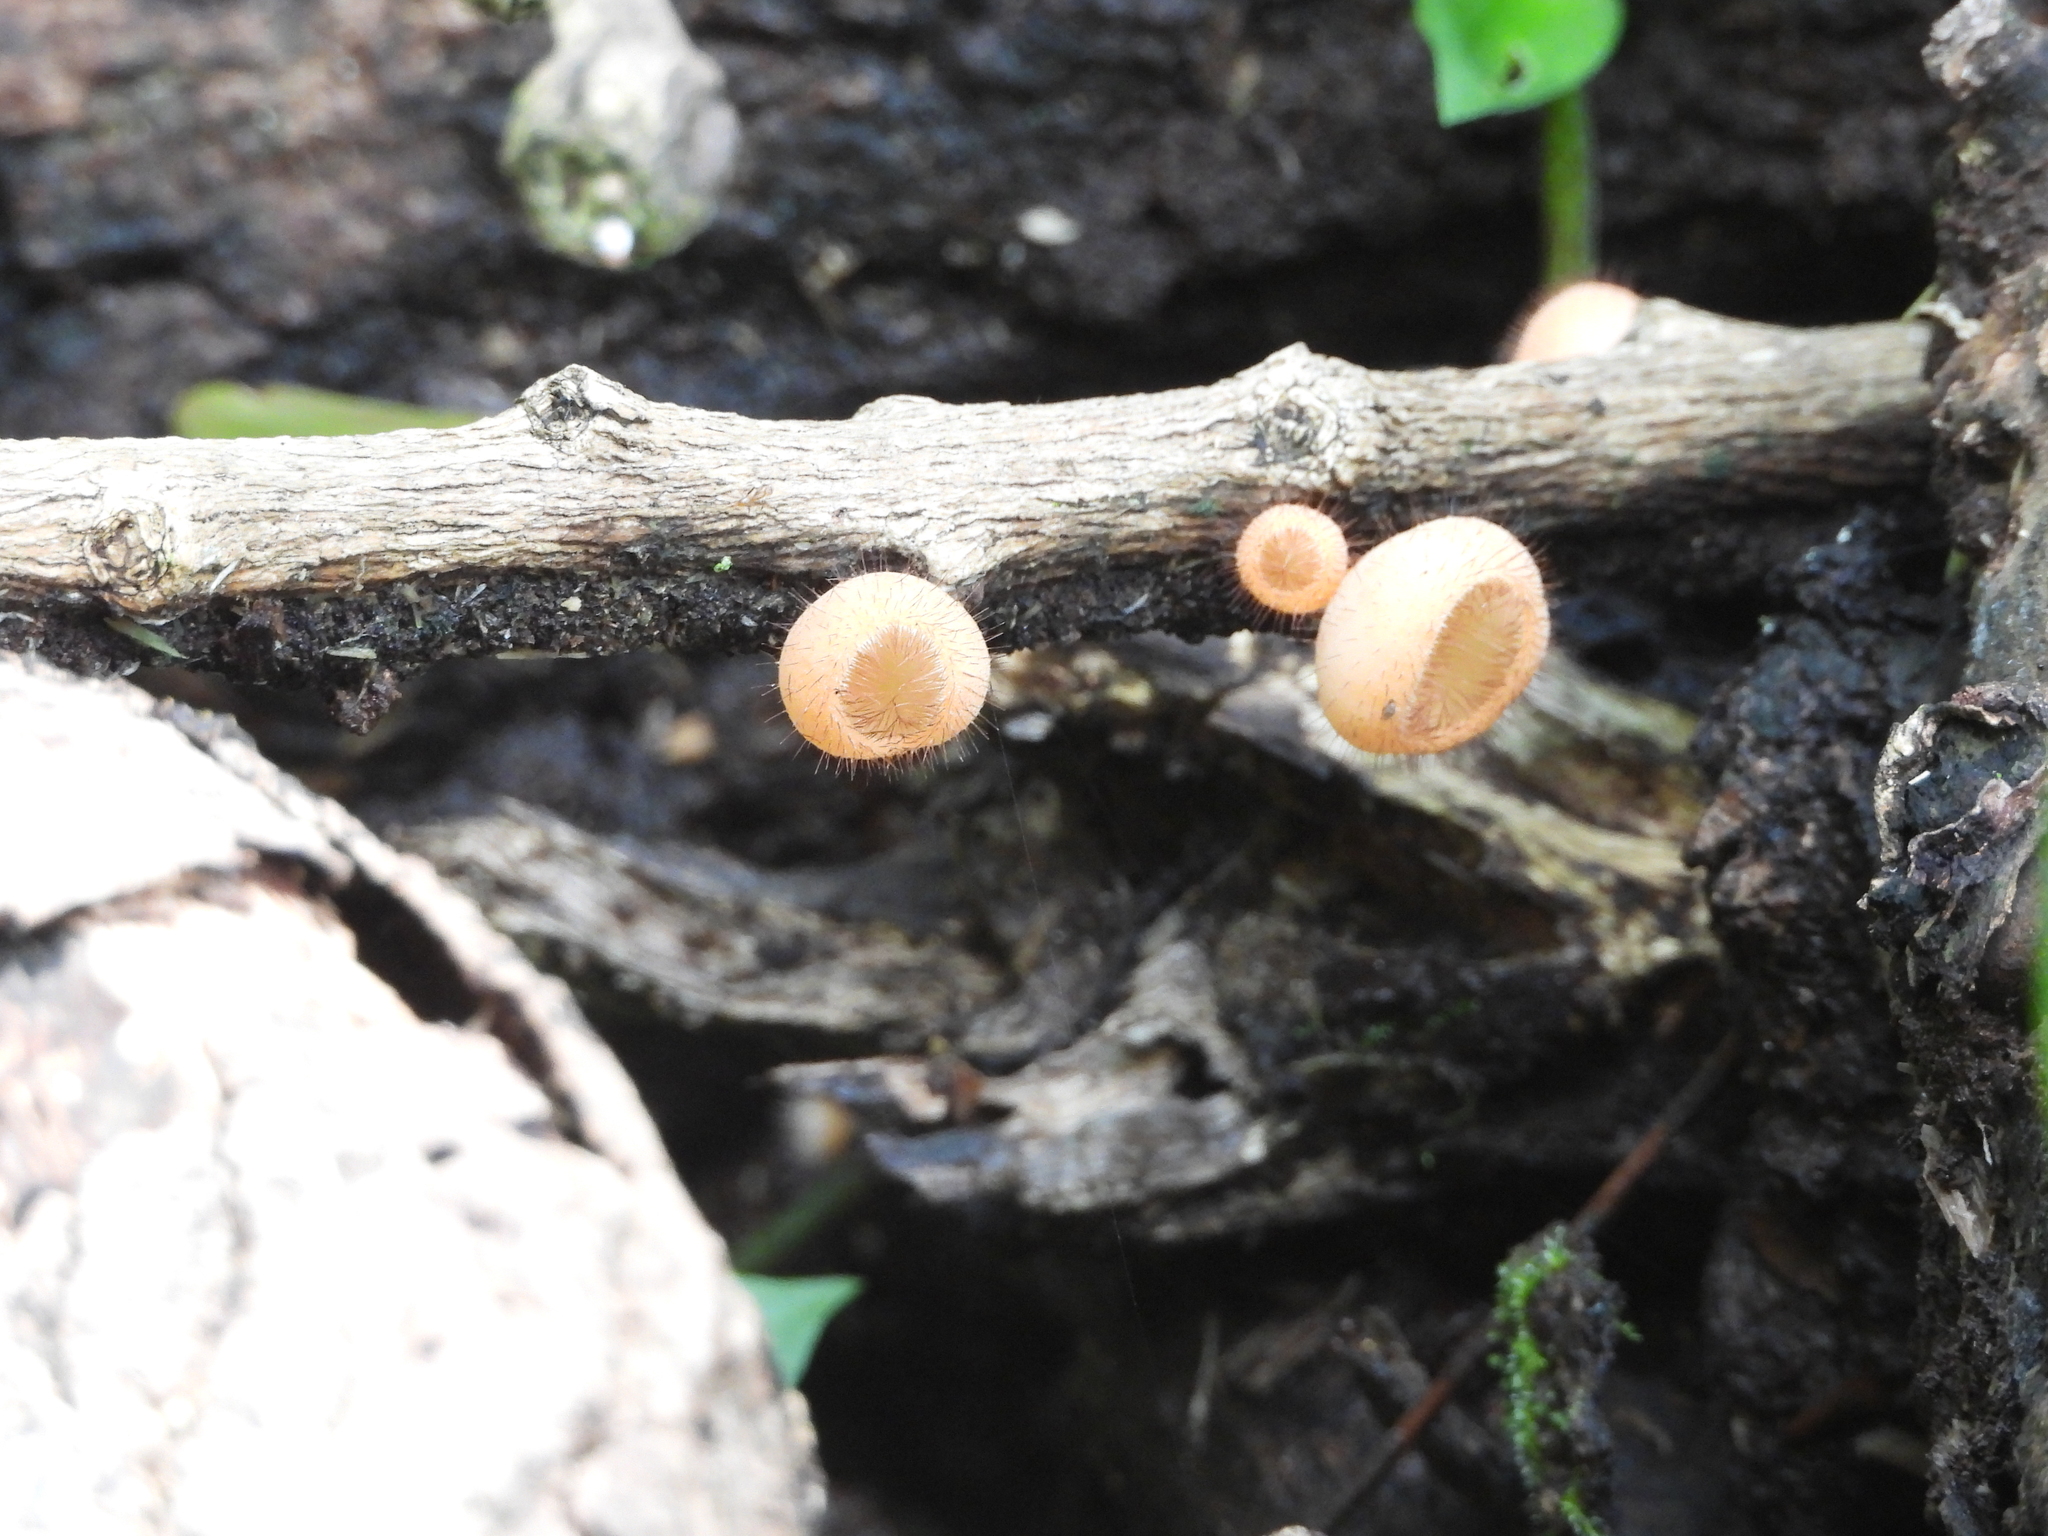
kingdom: Fungi
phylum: Ascomycota
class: Pezizomycetes
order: Pezizales
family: Sarcoscyphaceae
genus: Cookeina
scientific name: Cookeina tricholoma
